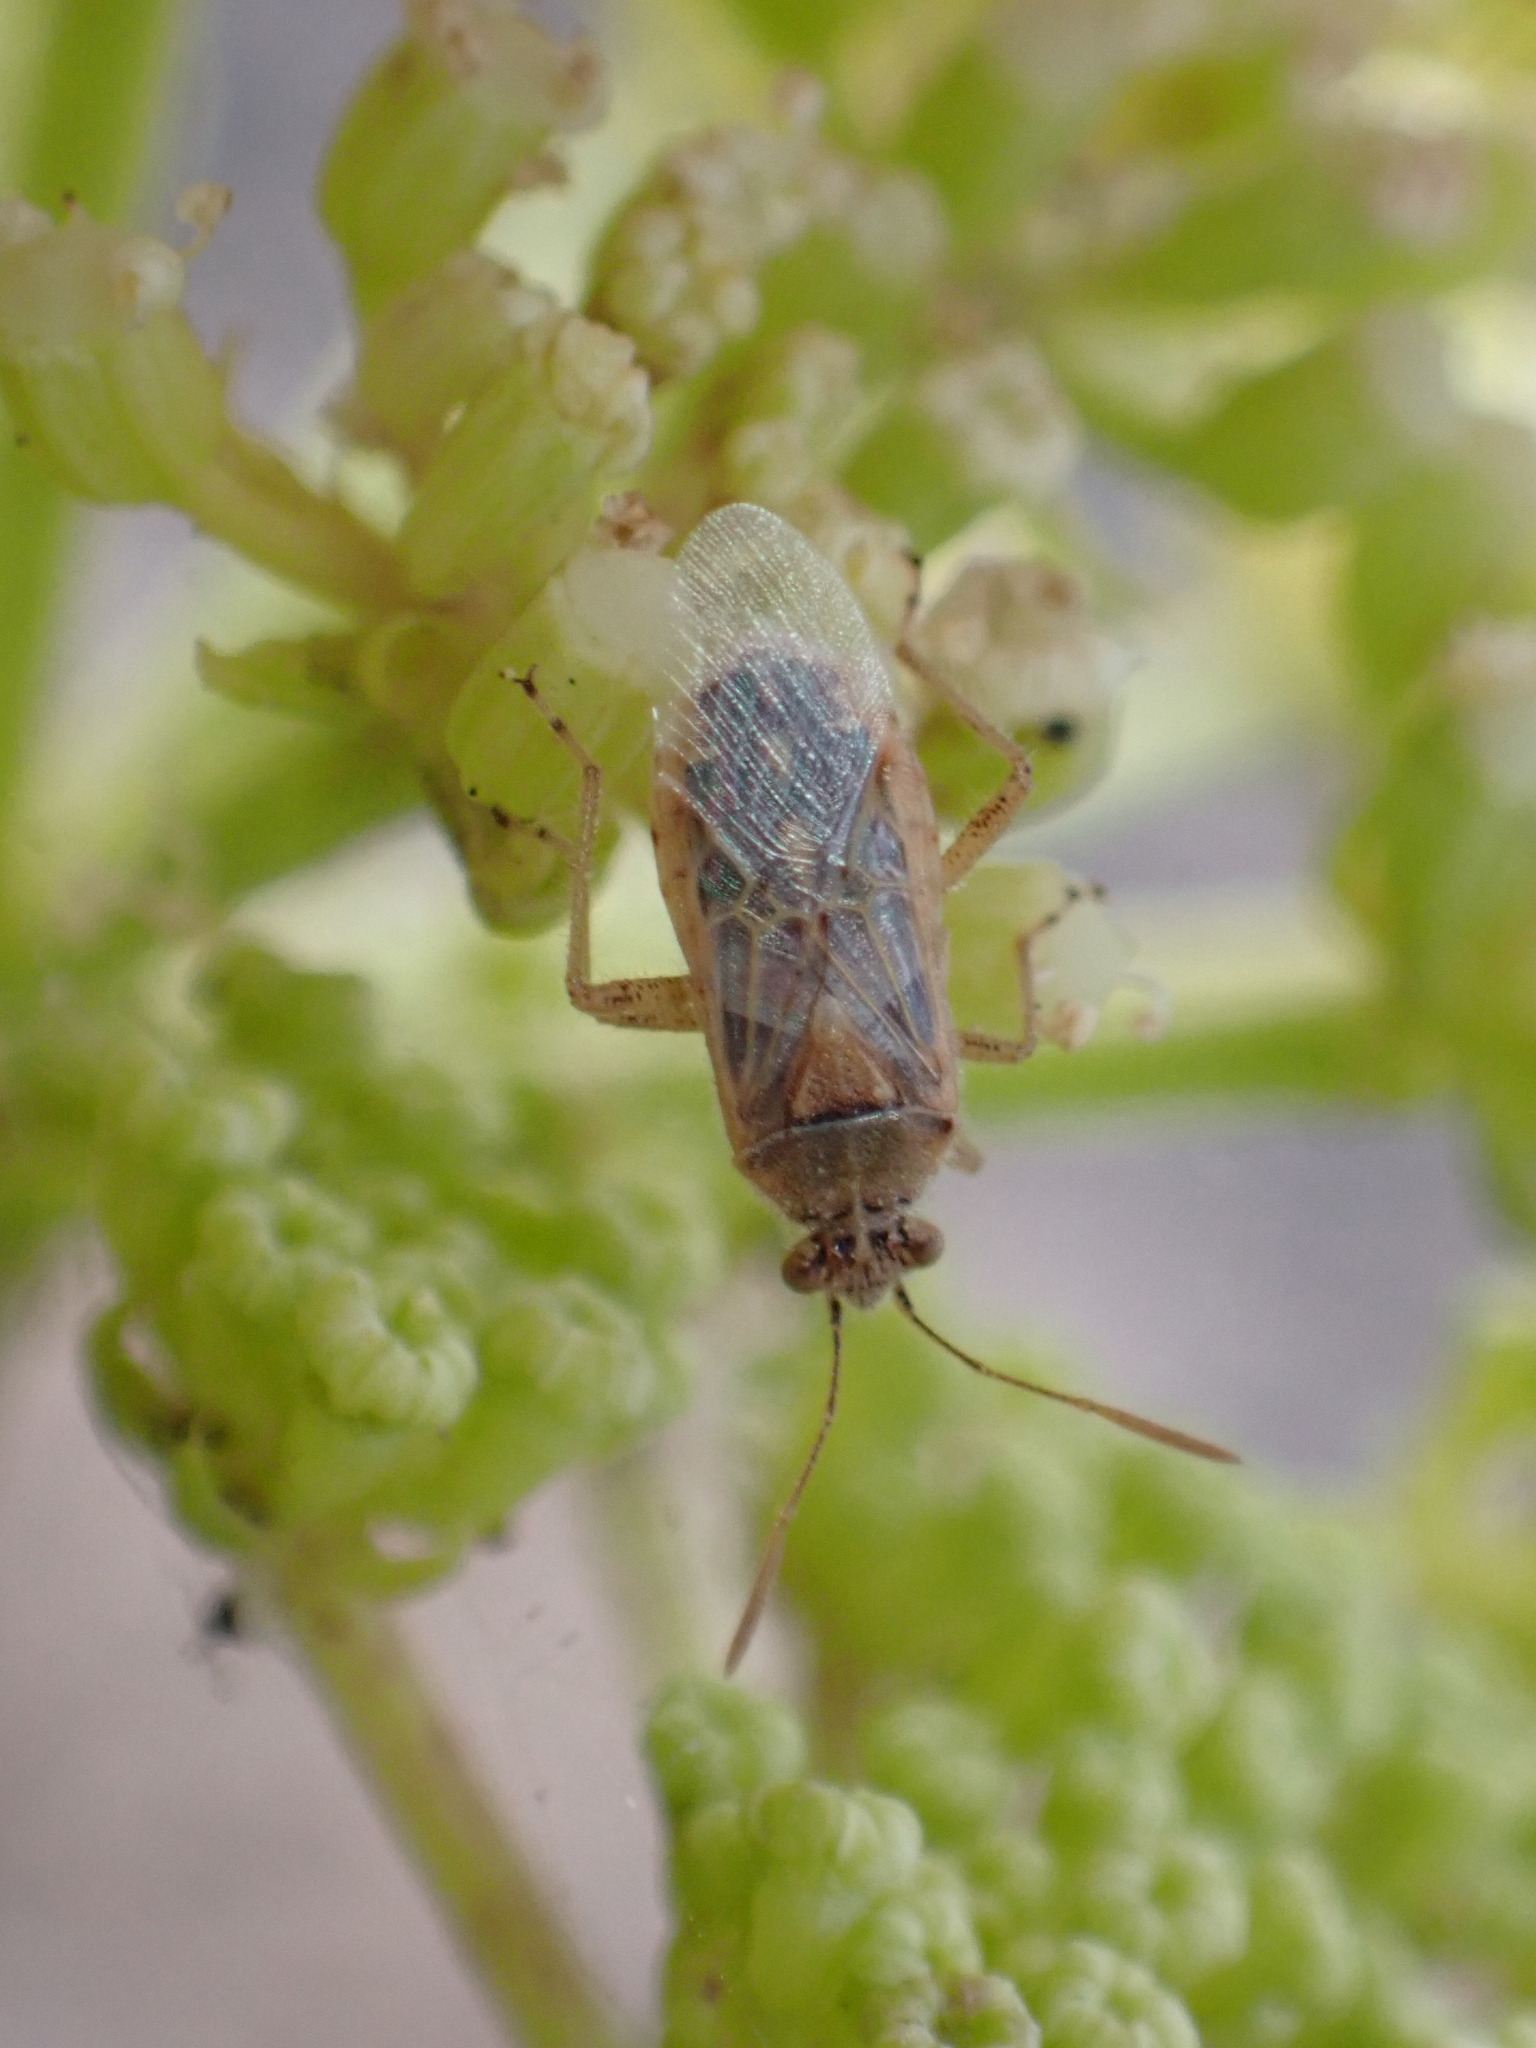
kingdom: Animalia
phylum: Arthropoda
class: Insecta
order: Hemiptera
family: Rhopalidae
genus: Liorhyssus
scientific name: Liorhyssus hyalinus
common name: Scentless plant bug
